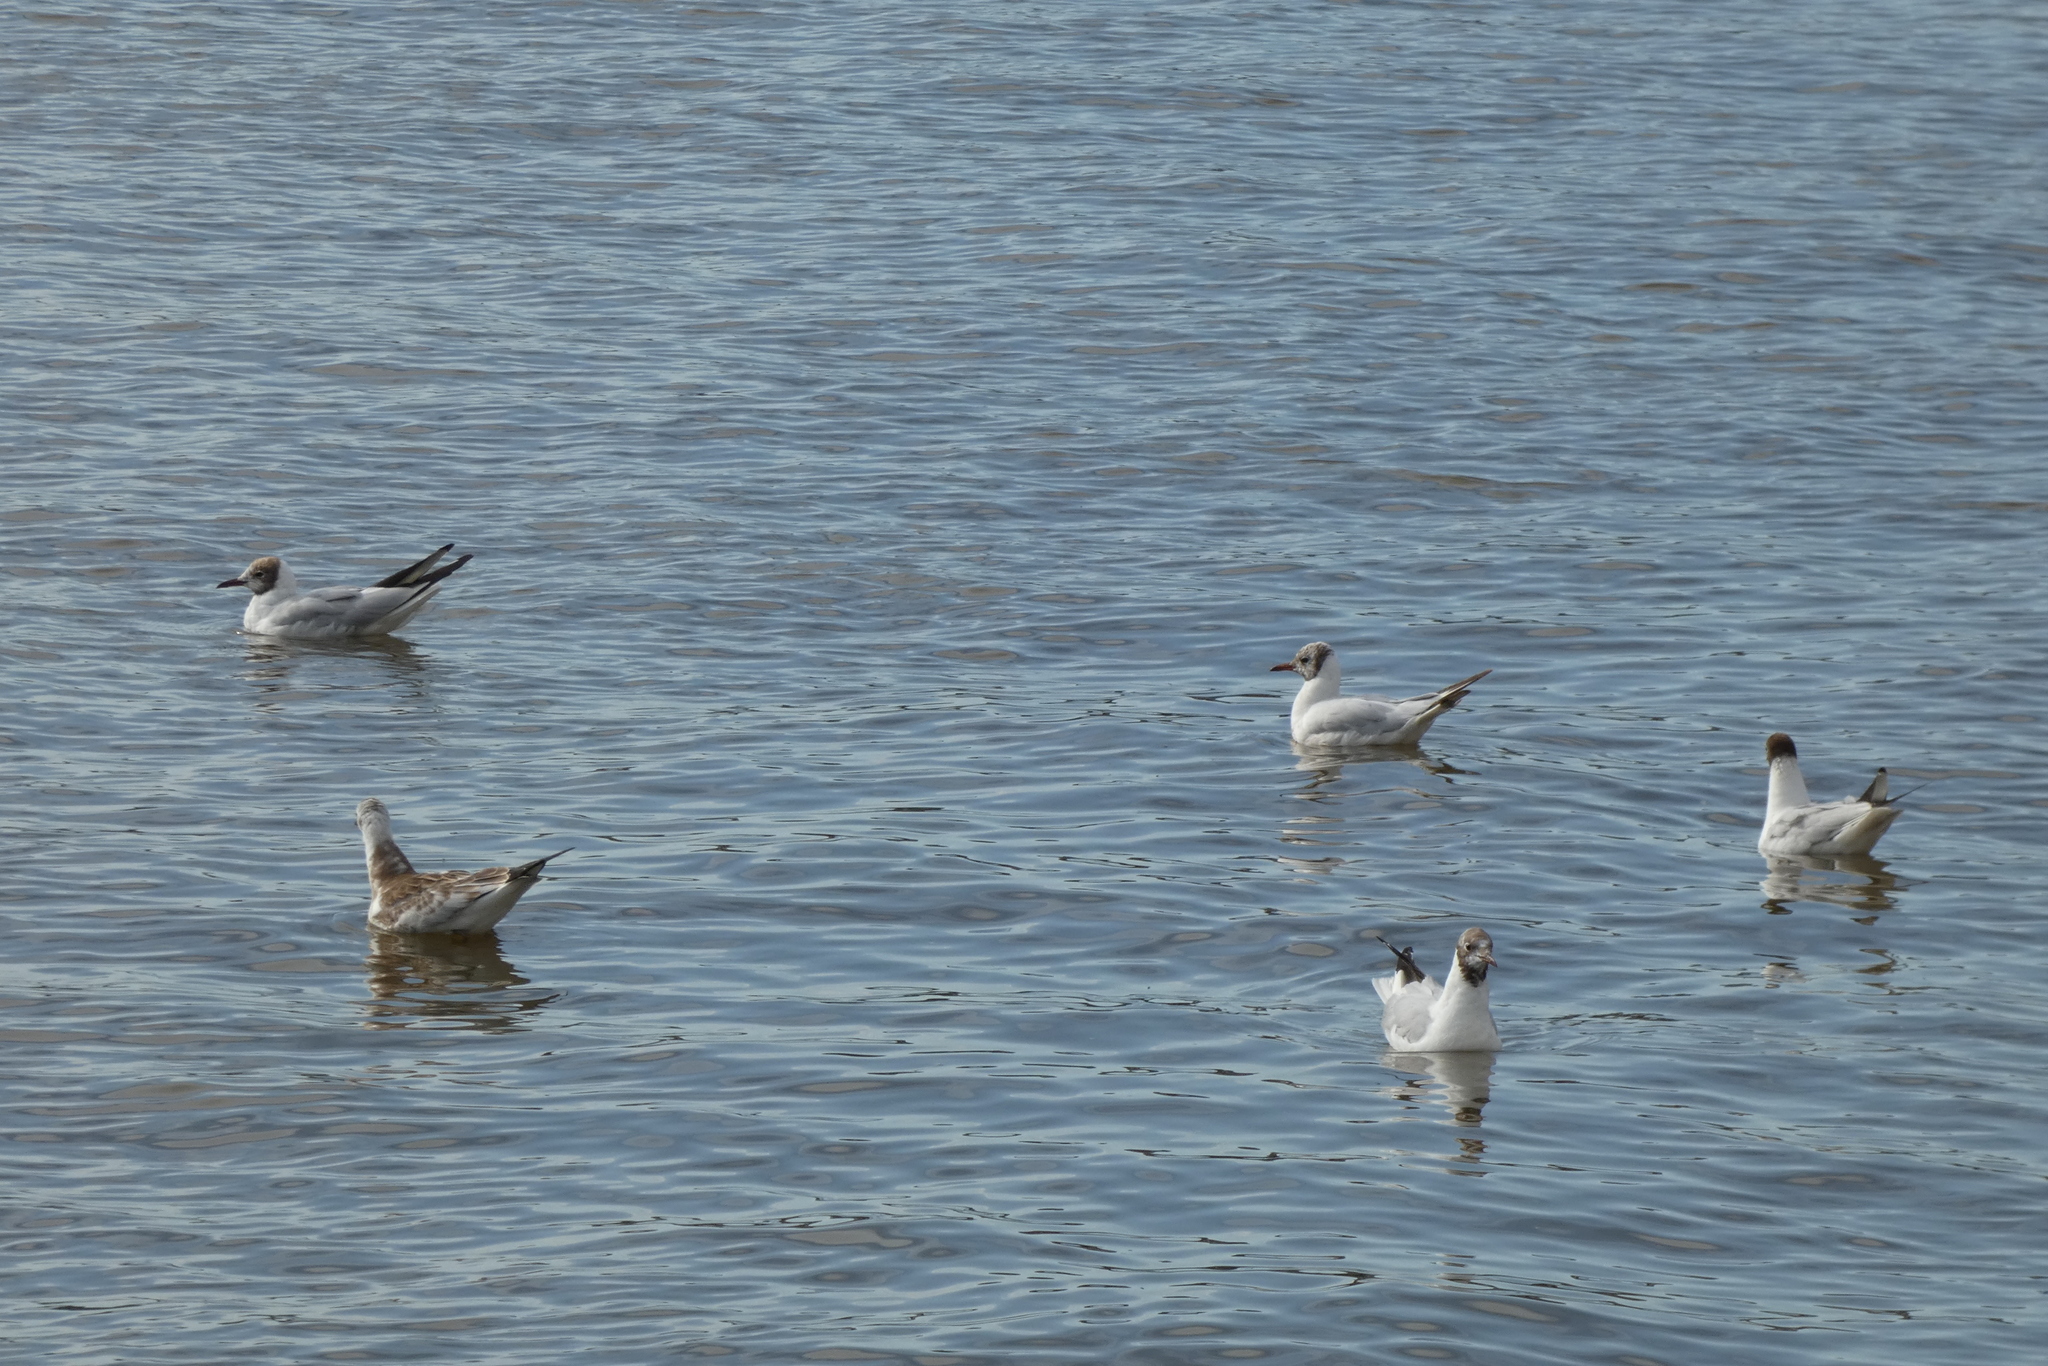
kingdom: Animalia
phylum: Chordata
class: Aves
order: Charadriiformes
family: Laridae
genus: Chroicocephalus
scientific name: Chroicocephalus ridibundus
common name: Black-headed gull
